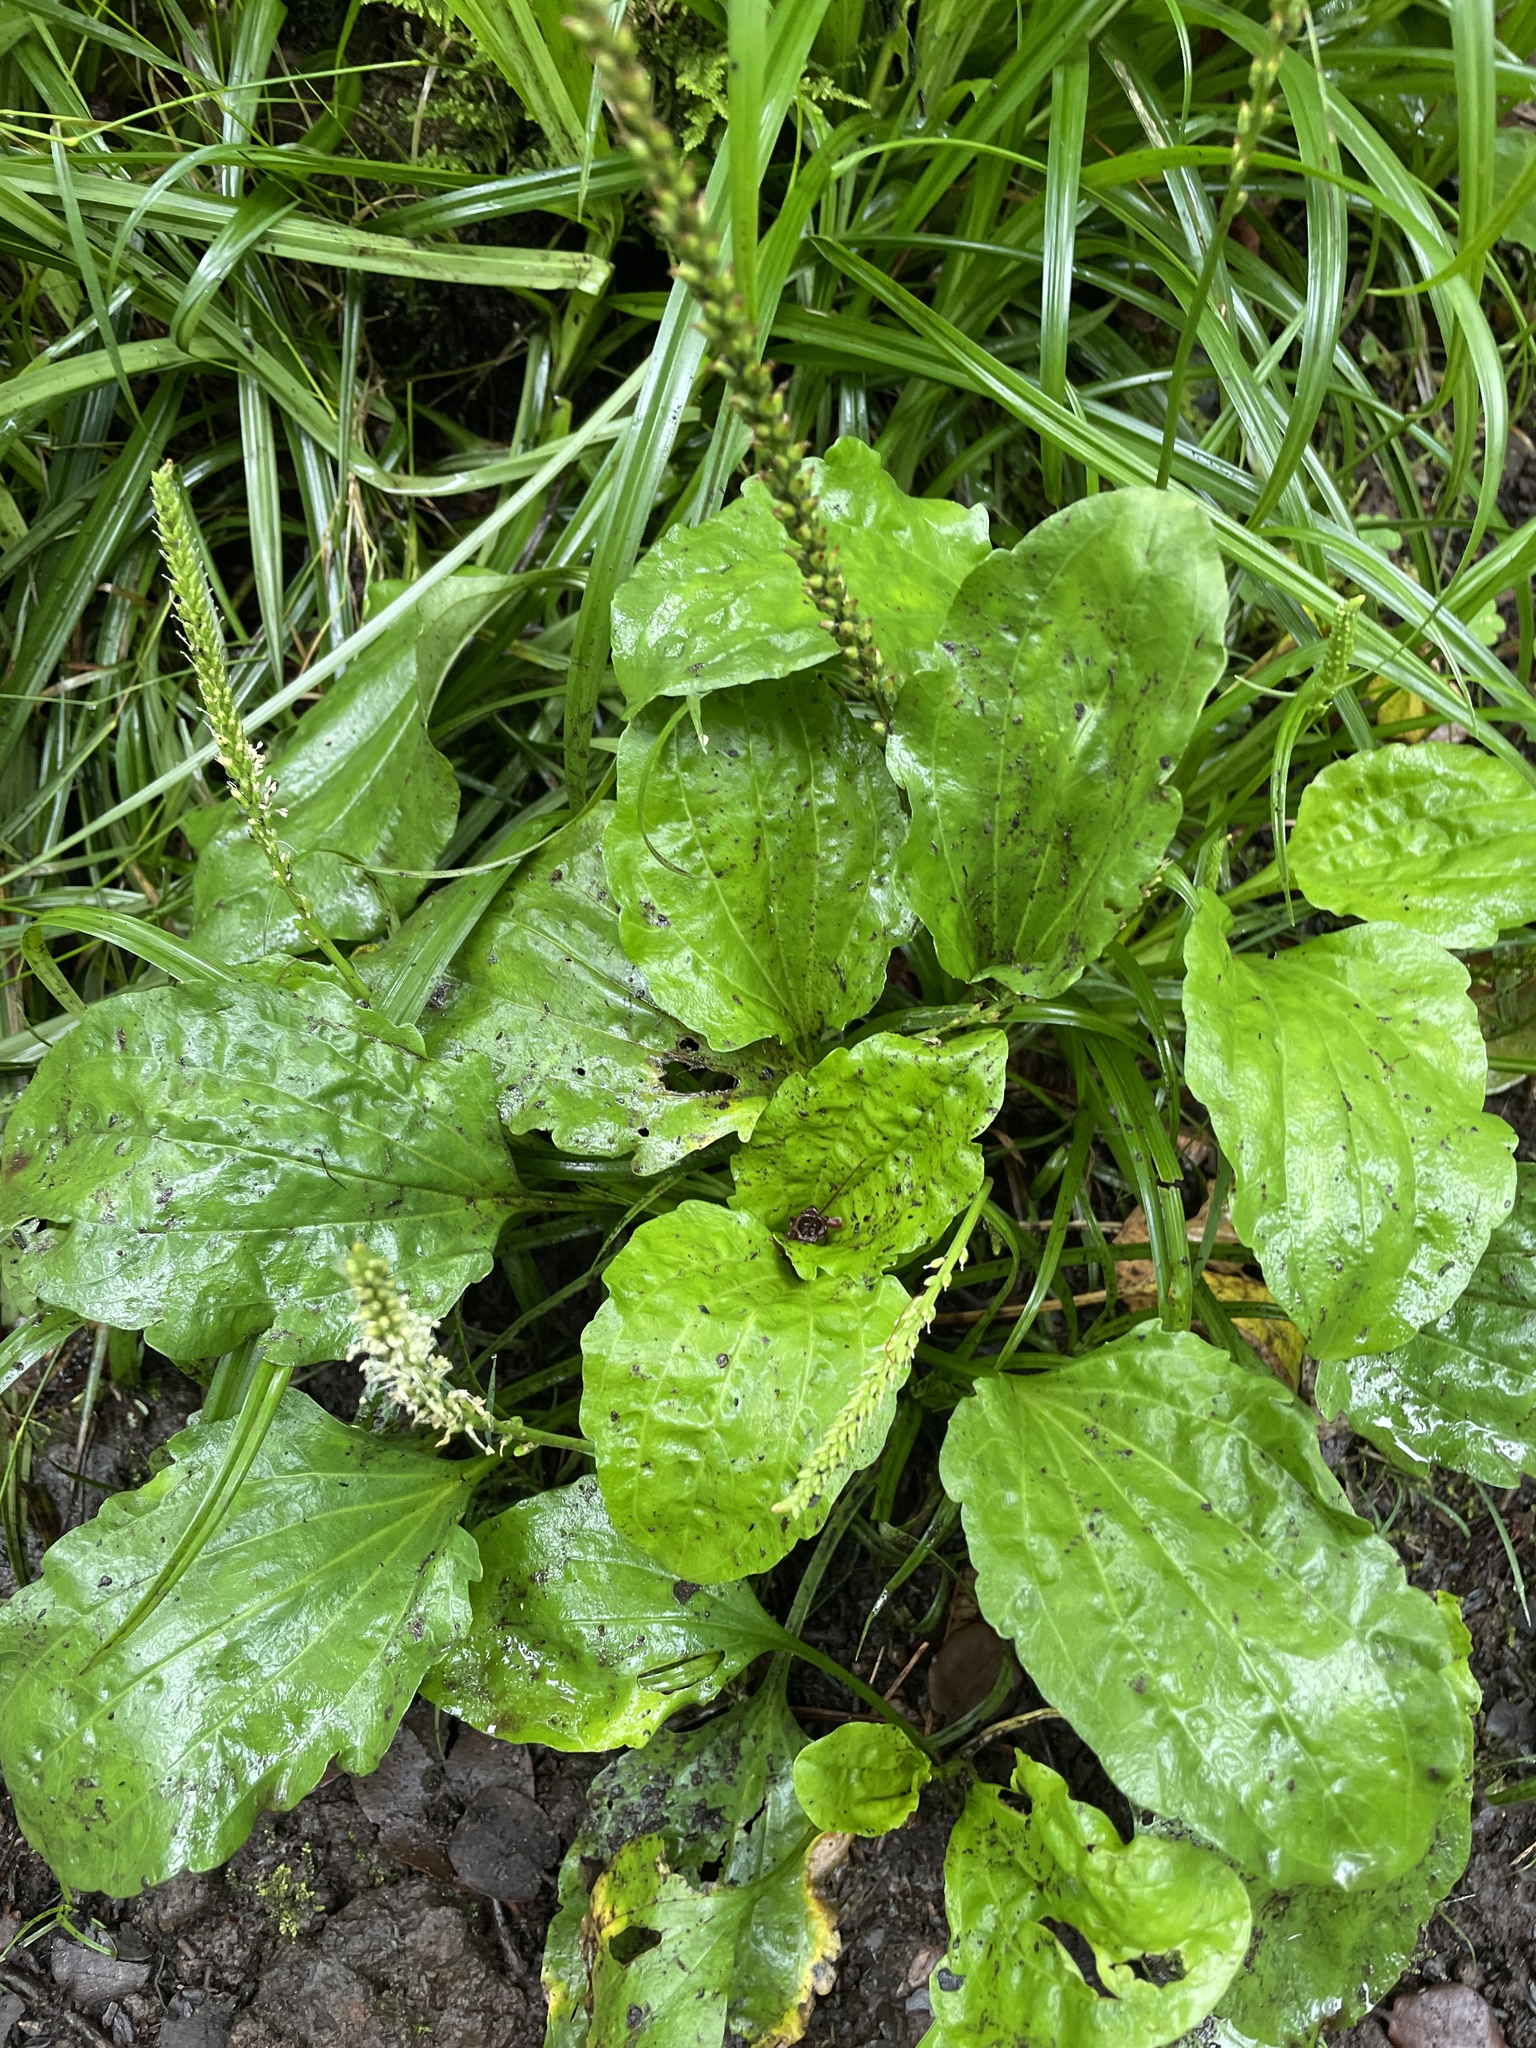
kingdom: Plantae
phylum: Tracheophyta
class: Magnoliopsida
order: Lamiales
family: Plantaginaceae
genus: Plantago
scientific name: Plantago major
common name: Common plantain
